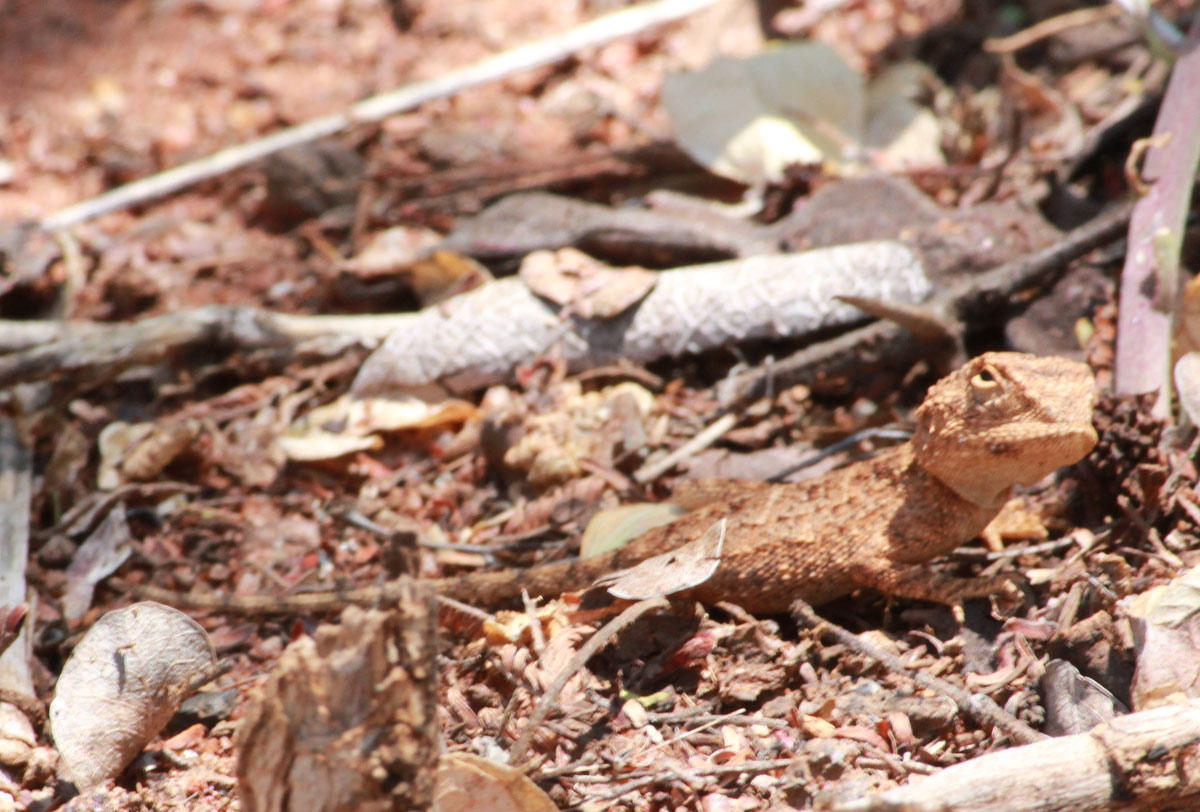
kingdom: Animalia
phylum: Chordata
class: Squamata
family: Agamidae
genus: Agama
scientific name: Agama armata
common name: Northern ground agama
